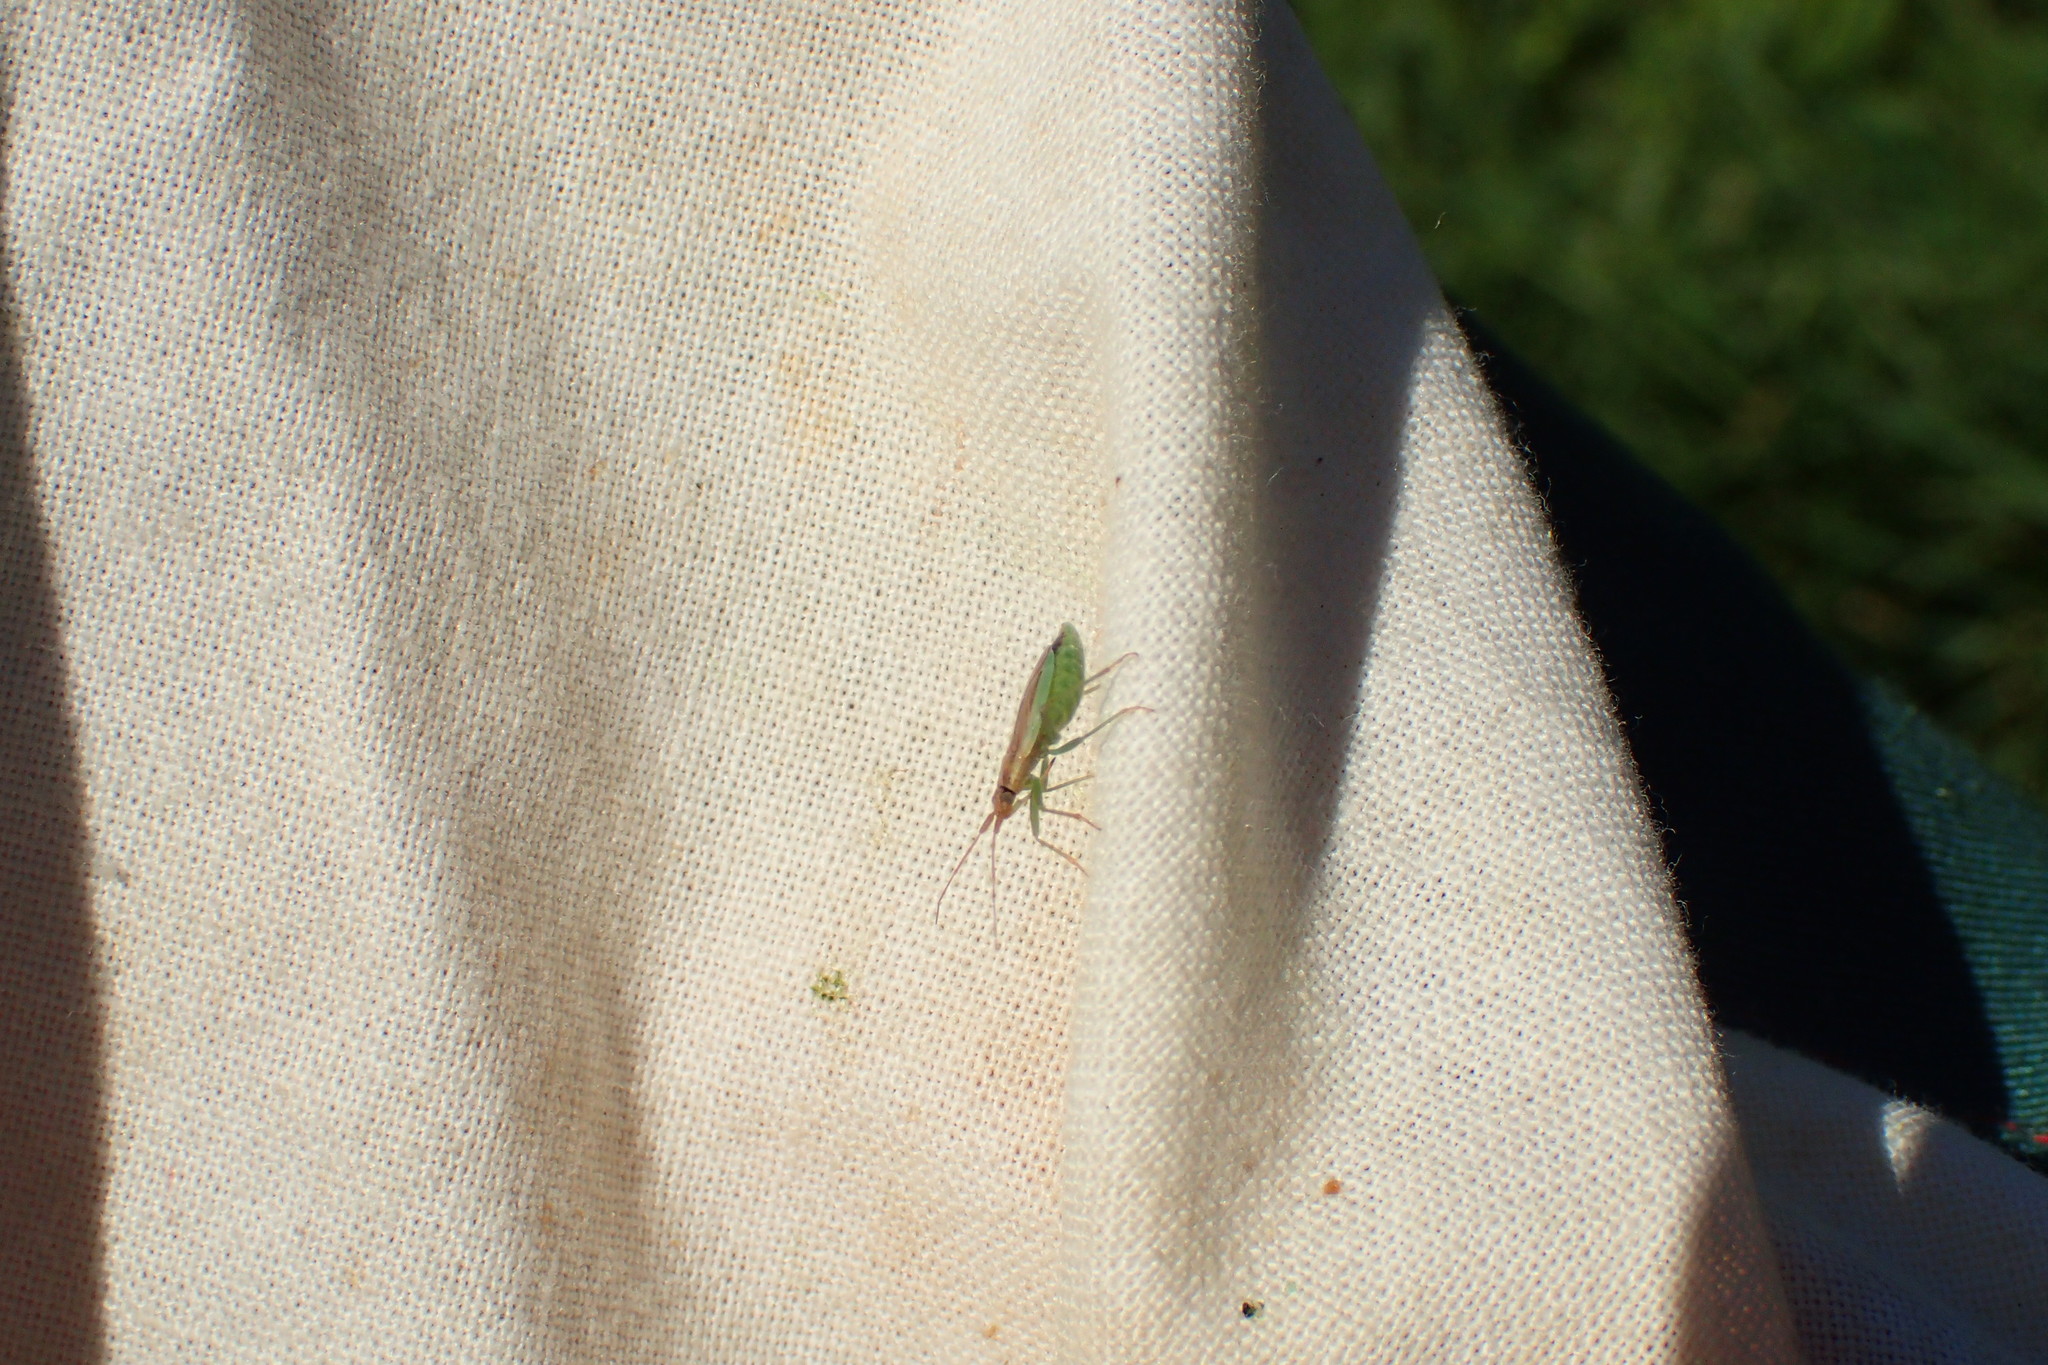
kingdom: Animalia
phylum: Arthropoda
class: Insecta
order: Hemiptera
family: Miridae
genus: Stenodema
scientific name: Stenodema holsata
